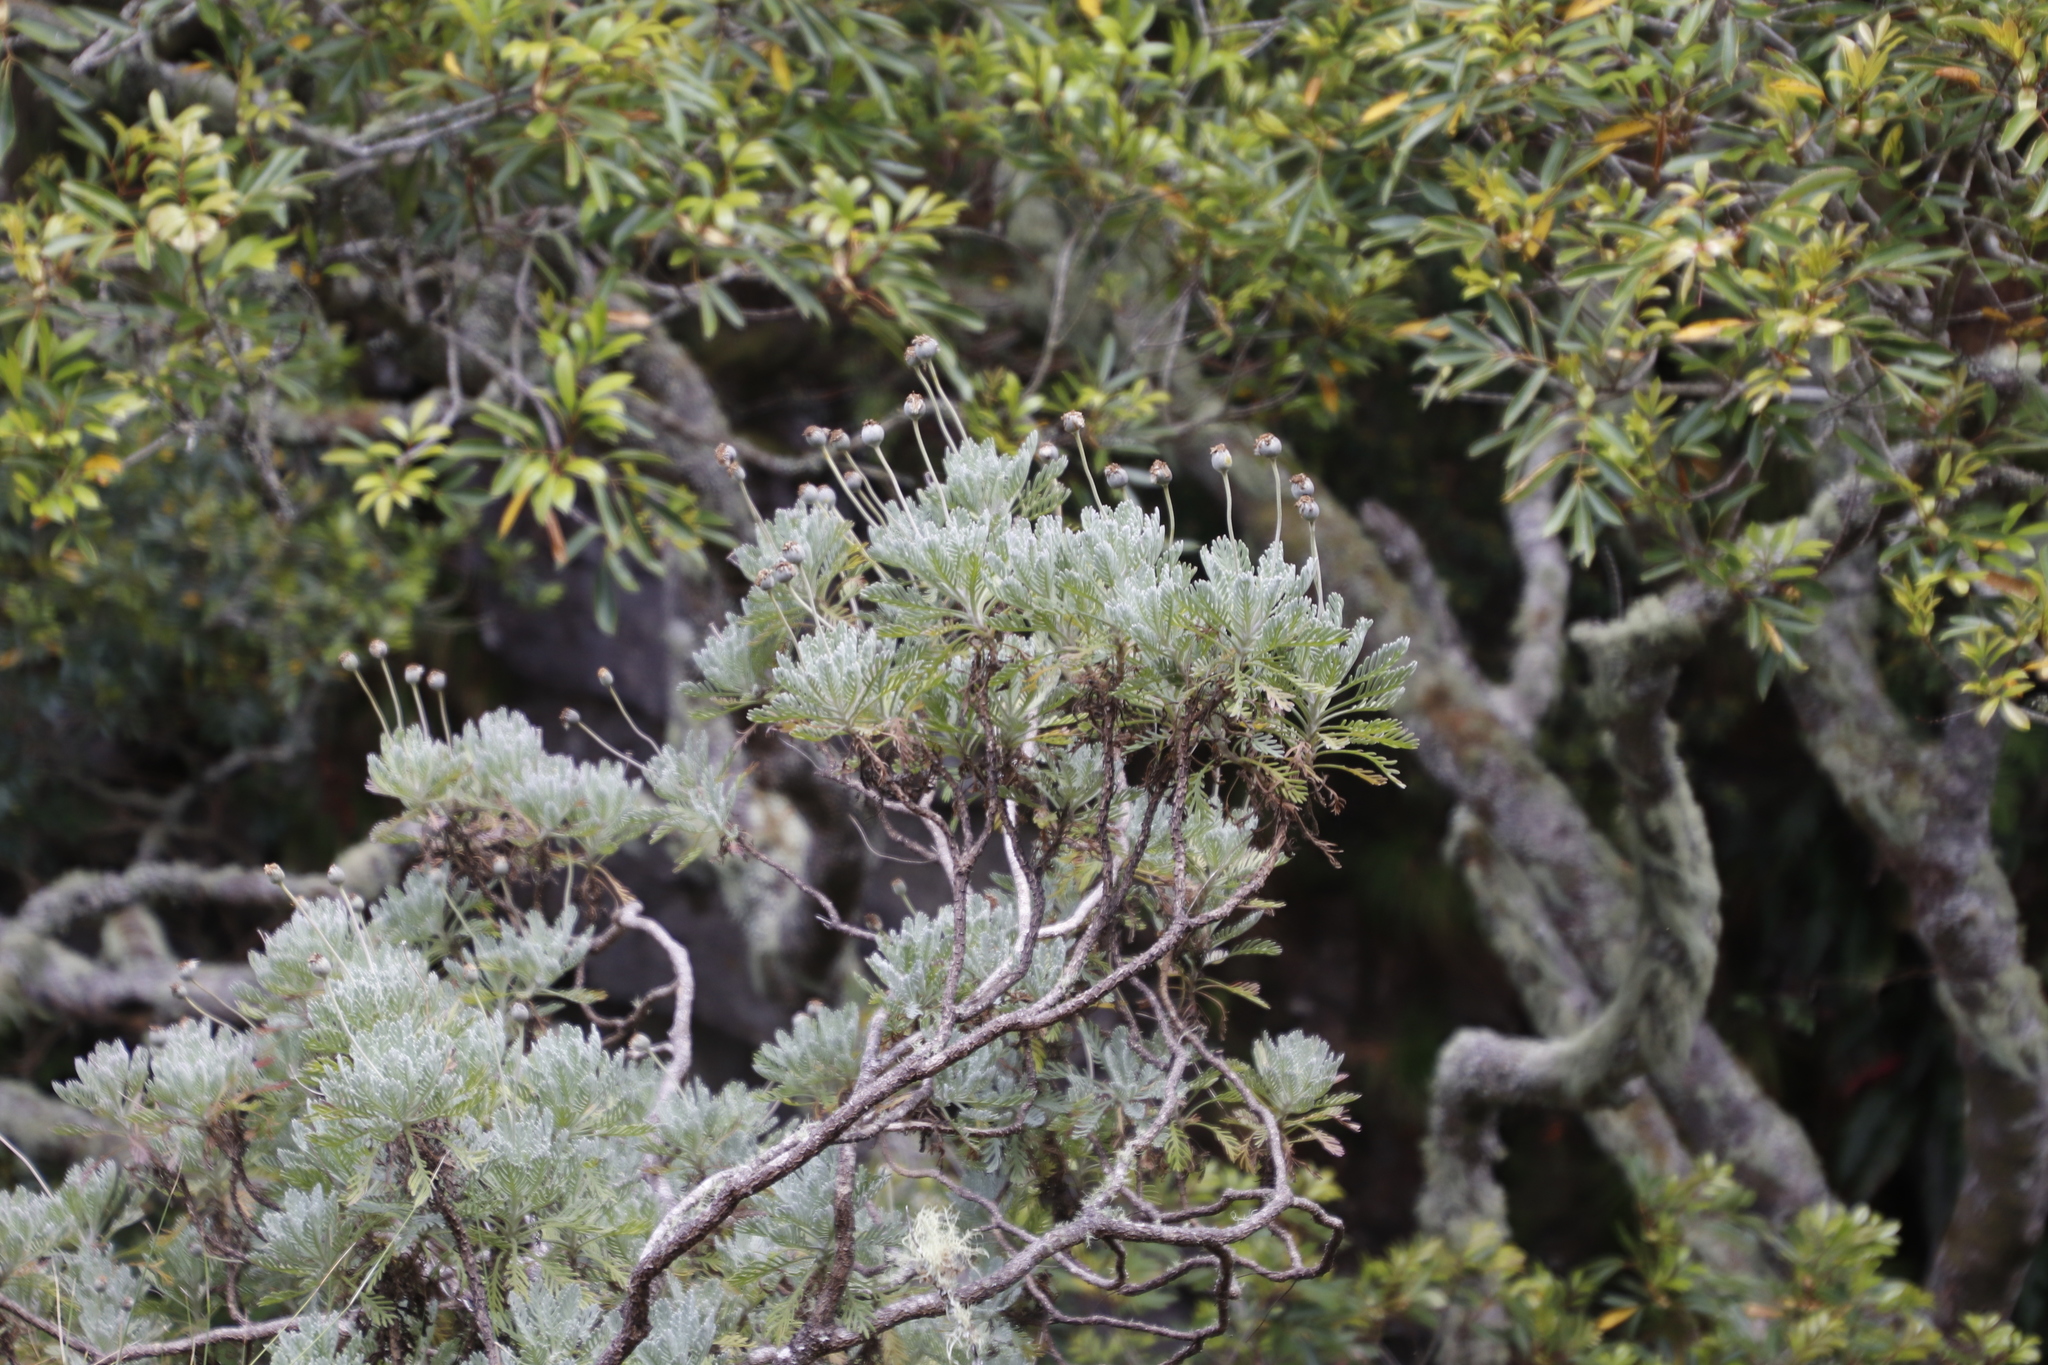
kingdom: Plantae
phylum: Tracheophyta
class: Magnoliopsida
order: Asterales
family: Asteraceae
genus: Euryops
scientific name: Euryops pectinatus
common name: Gray-leaf euryops
